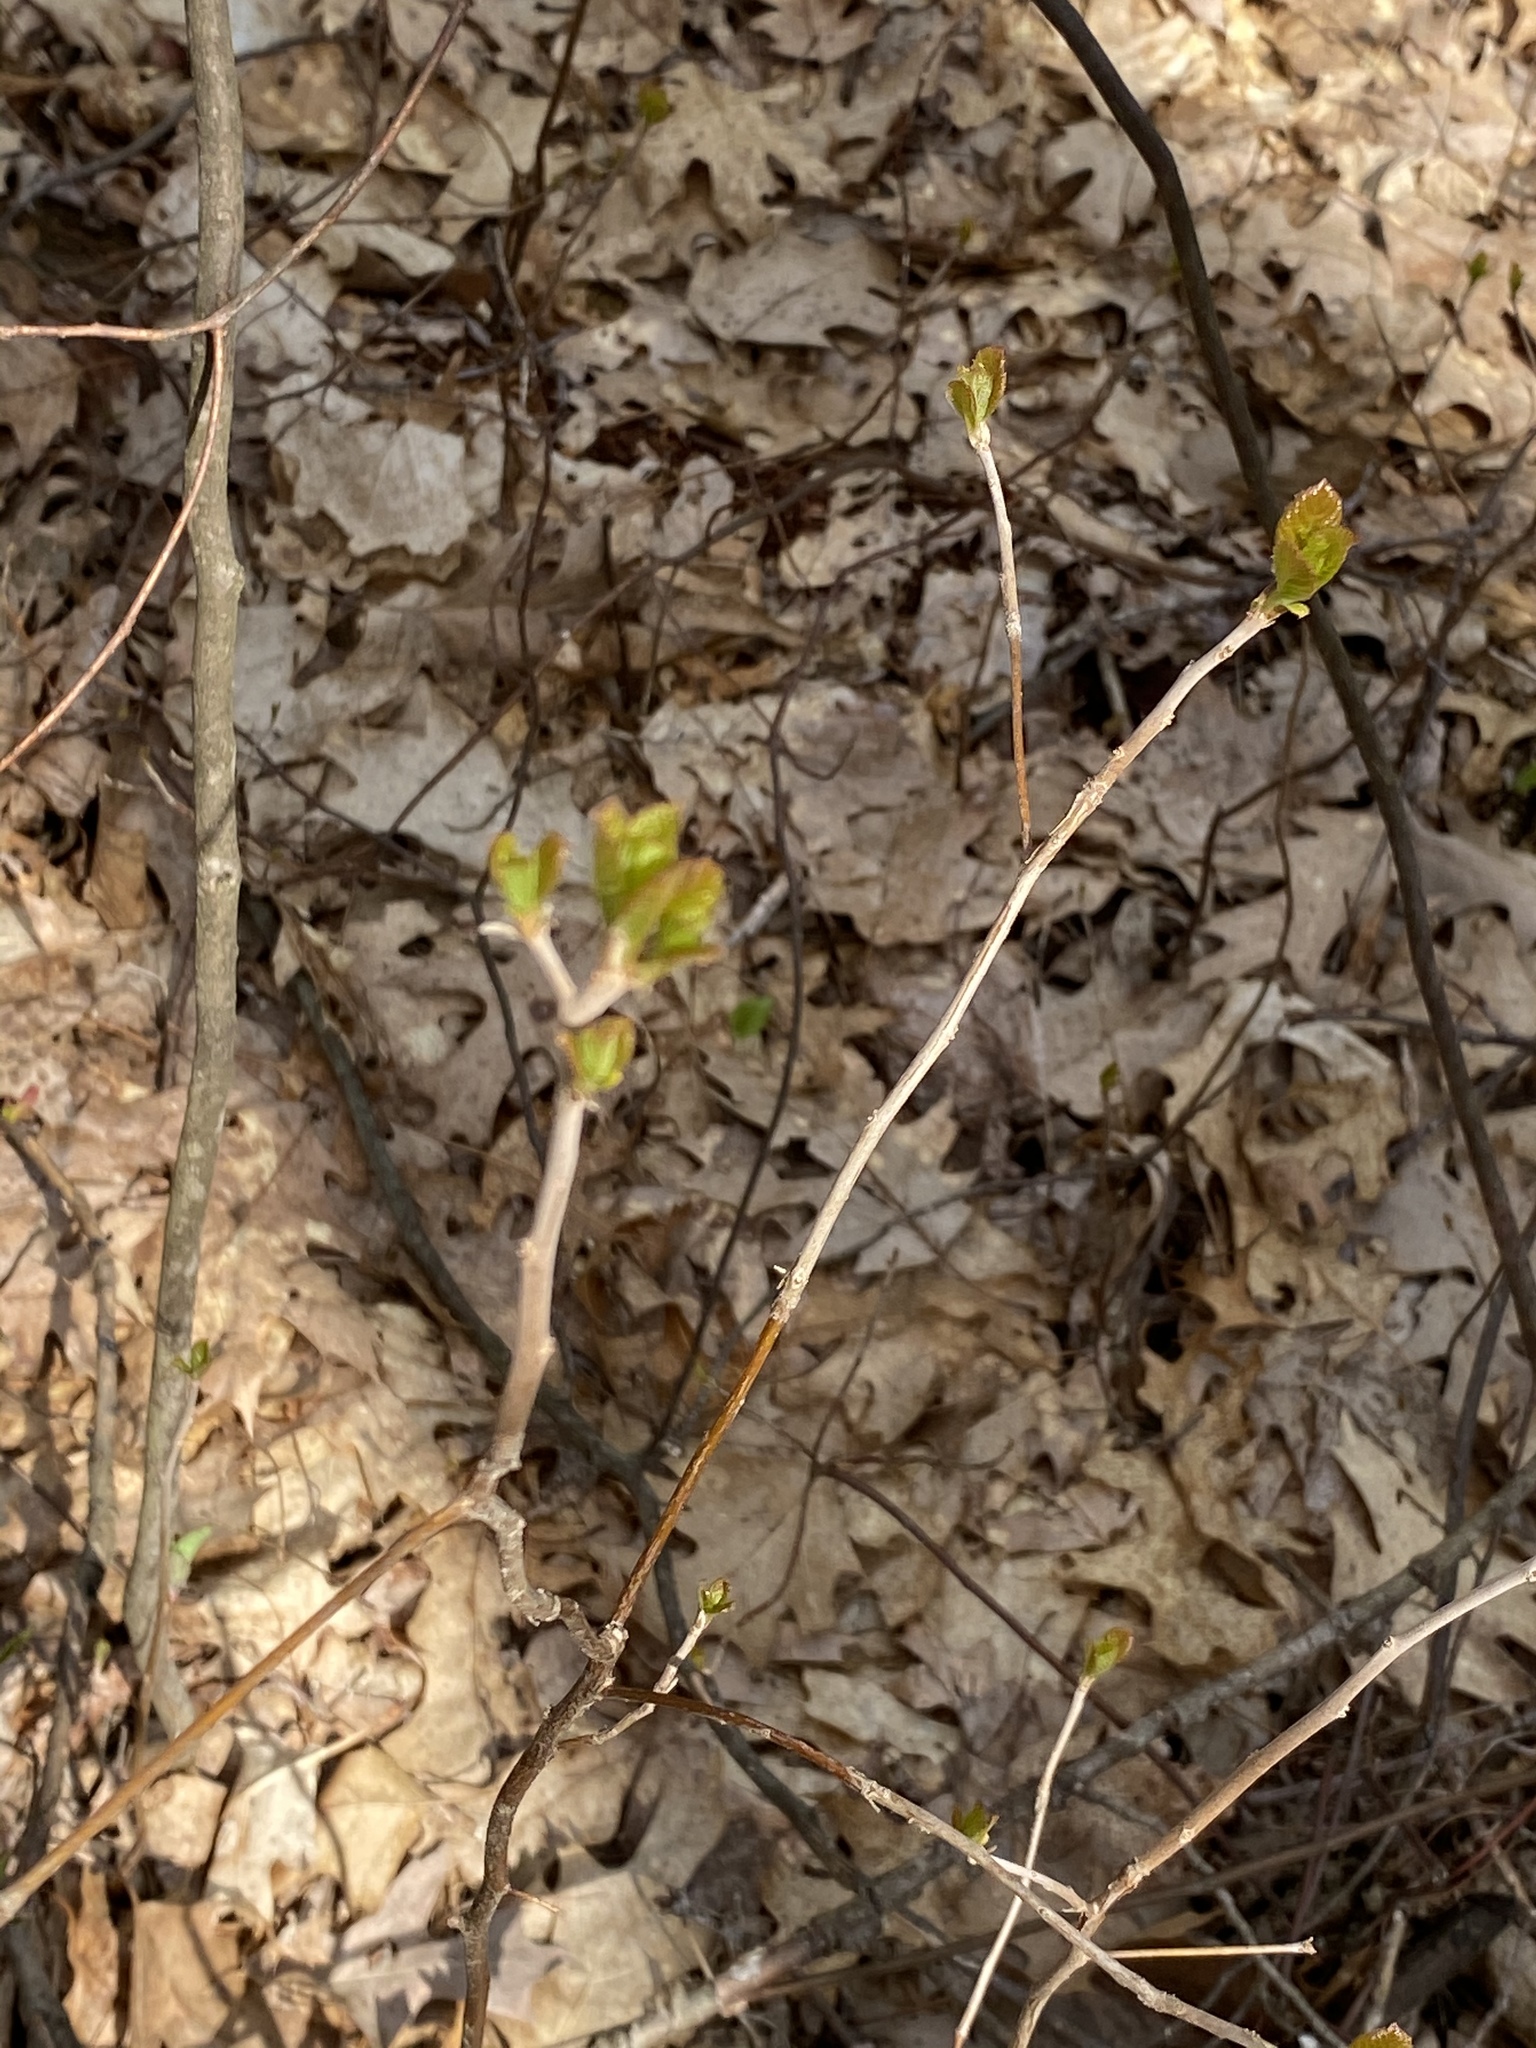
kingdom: Plantae
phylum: Tracheophyta
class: Magnoliopsida
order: Ericales
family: Clethraceae
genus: Clethra
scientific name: Clethra alnifolia
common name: Sweet pepperbush
